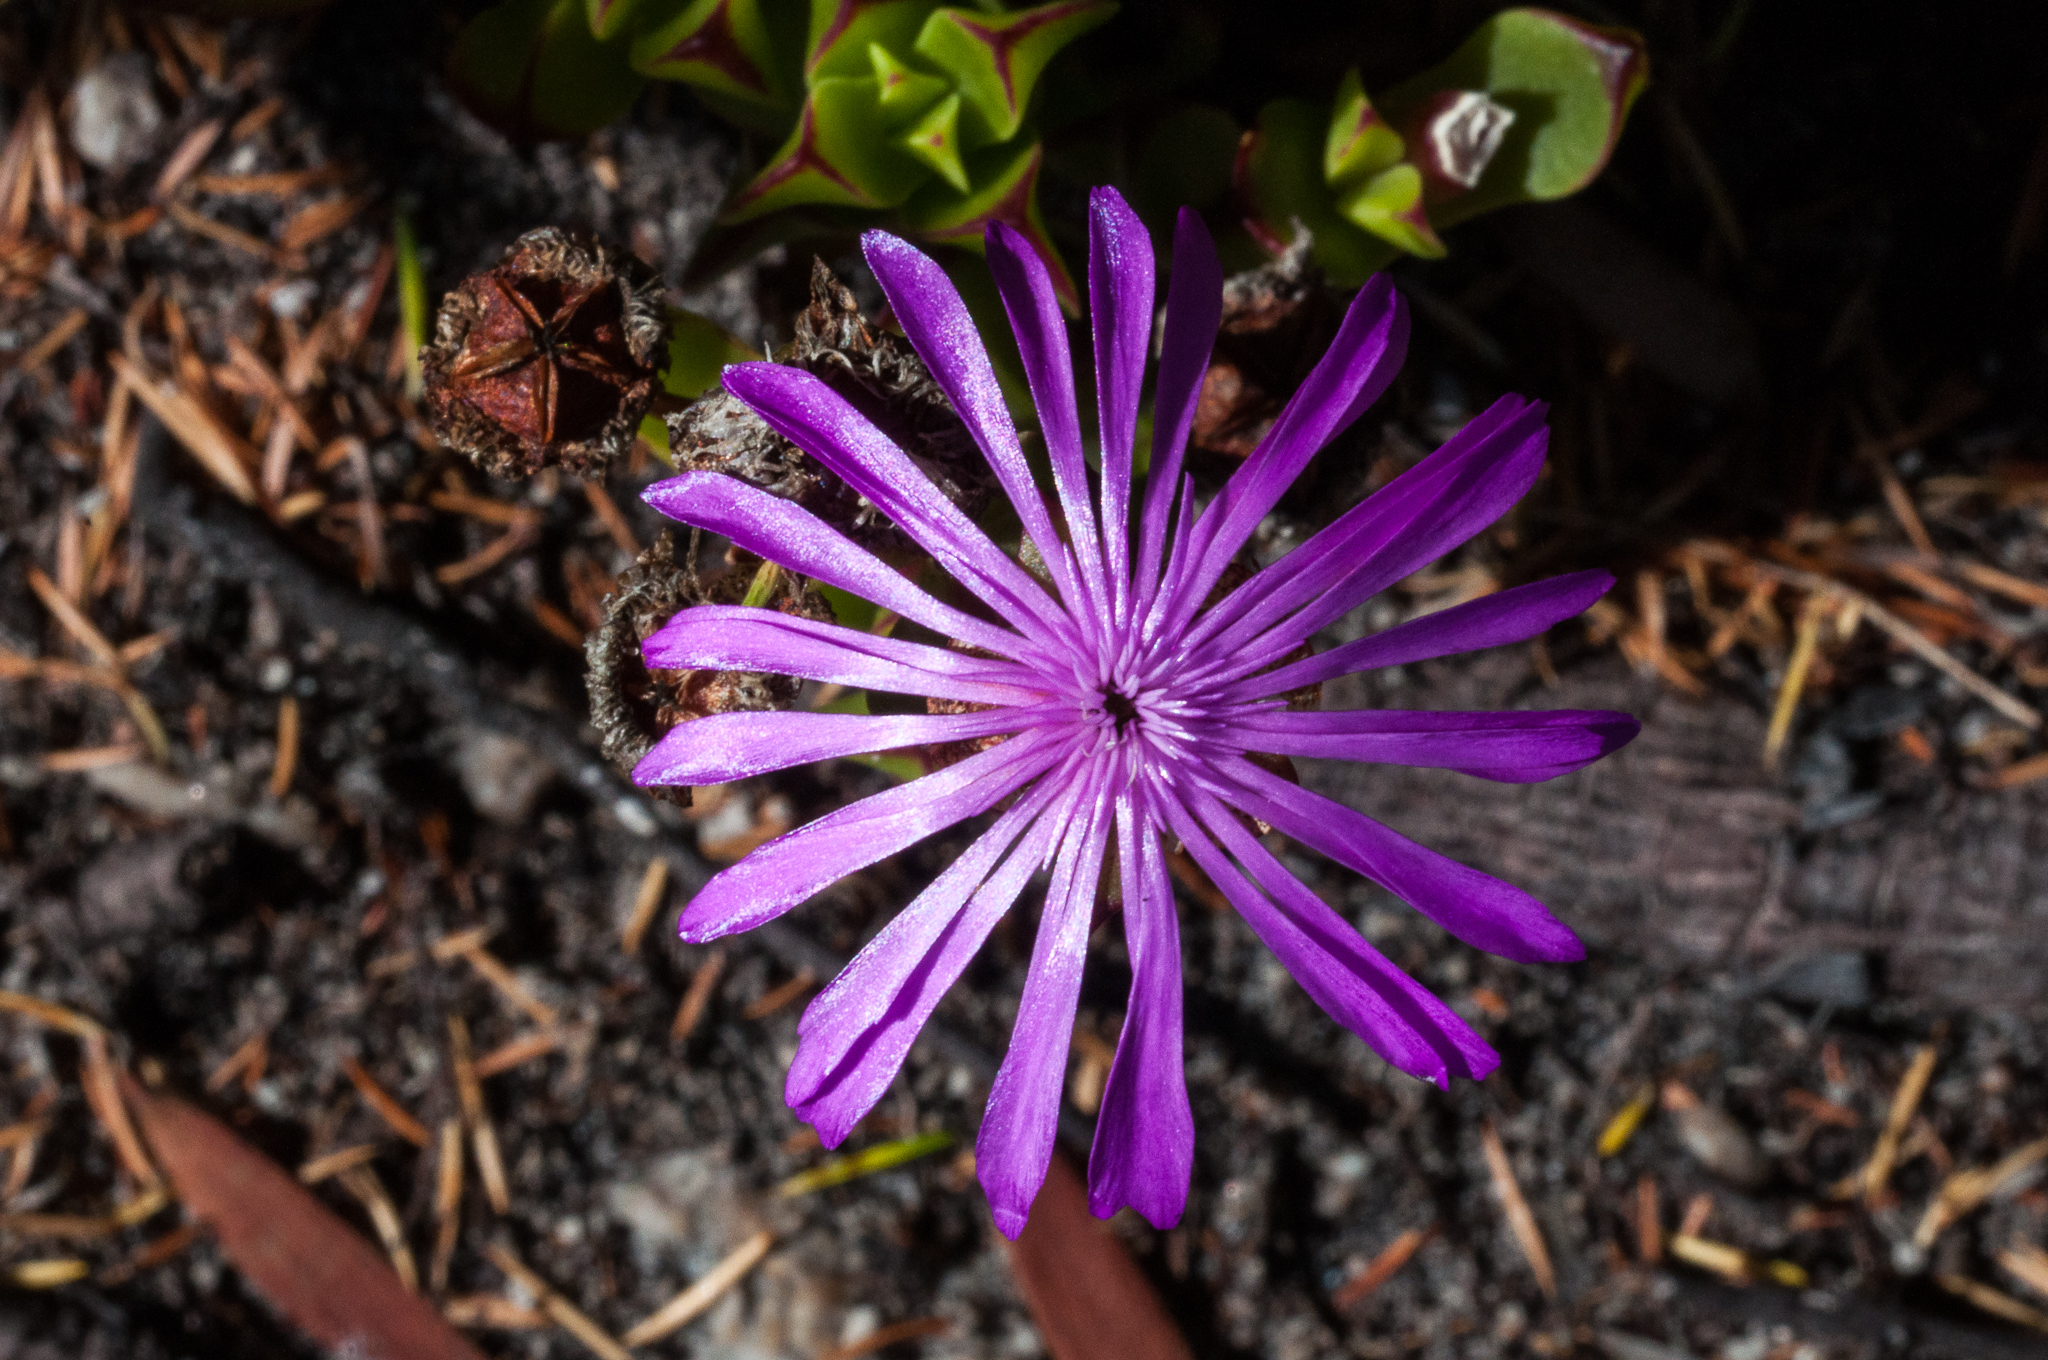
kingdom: Plantae
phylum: Tracheophyta
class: Magnoliopsida
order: Caryophyllales
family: Aizoaceae
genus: Erepsia
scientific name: Erepsia inclaudens
